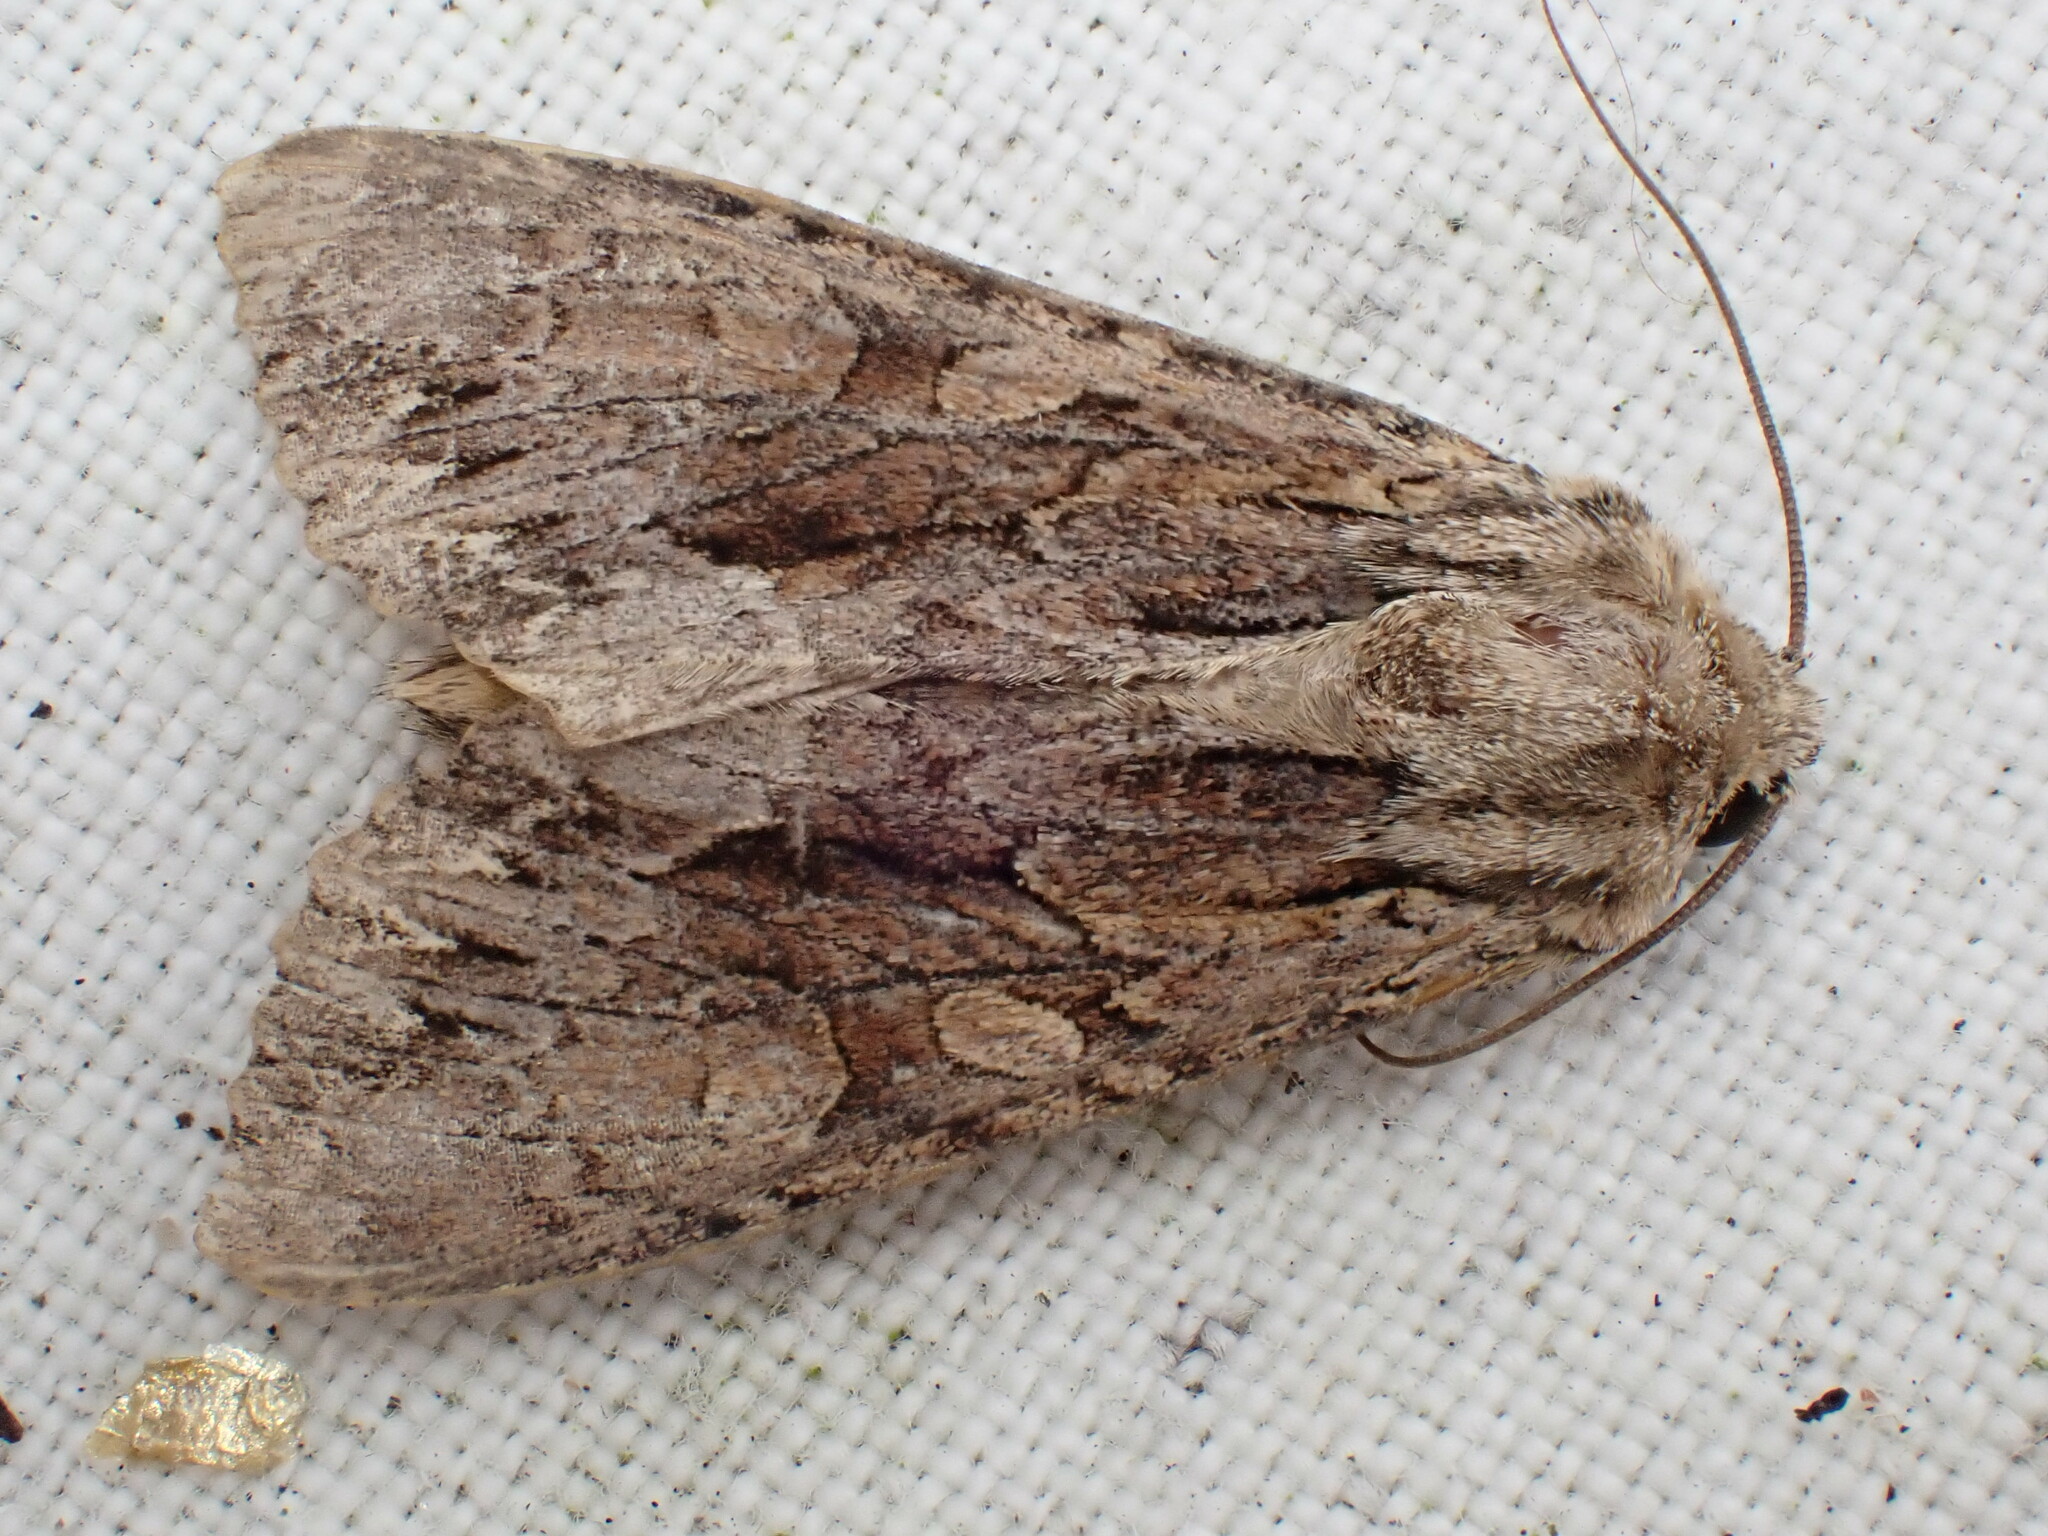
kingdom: Animalia
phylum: Arthropoda
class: Insecta
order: Lepidoptera
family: Noctuidae
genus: Apamea
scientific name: Apamea monoglypha
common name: Dark arches
